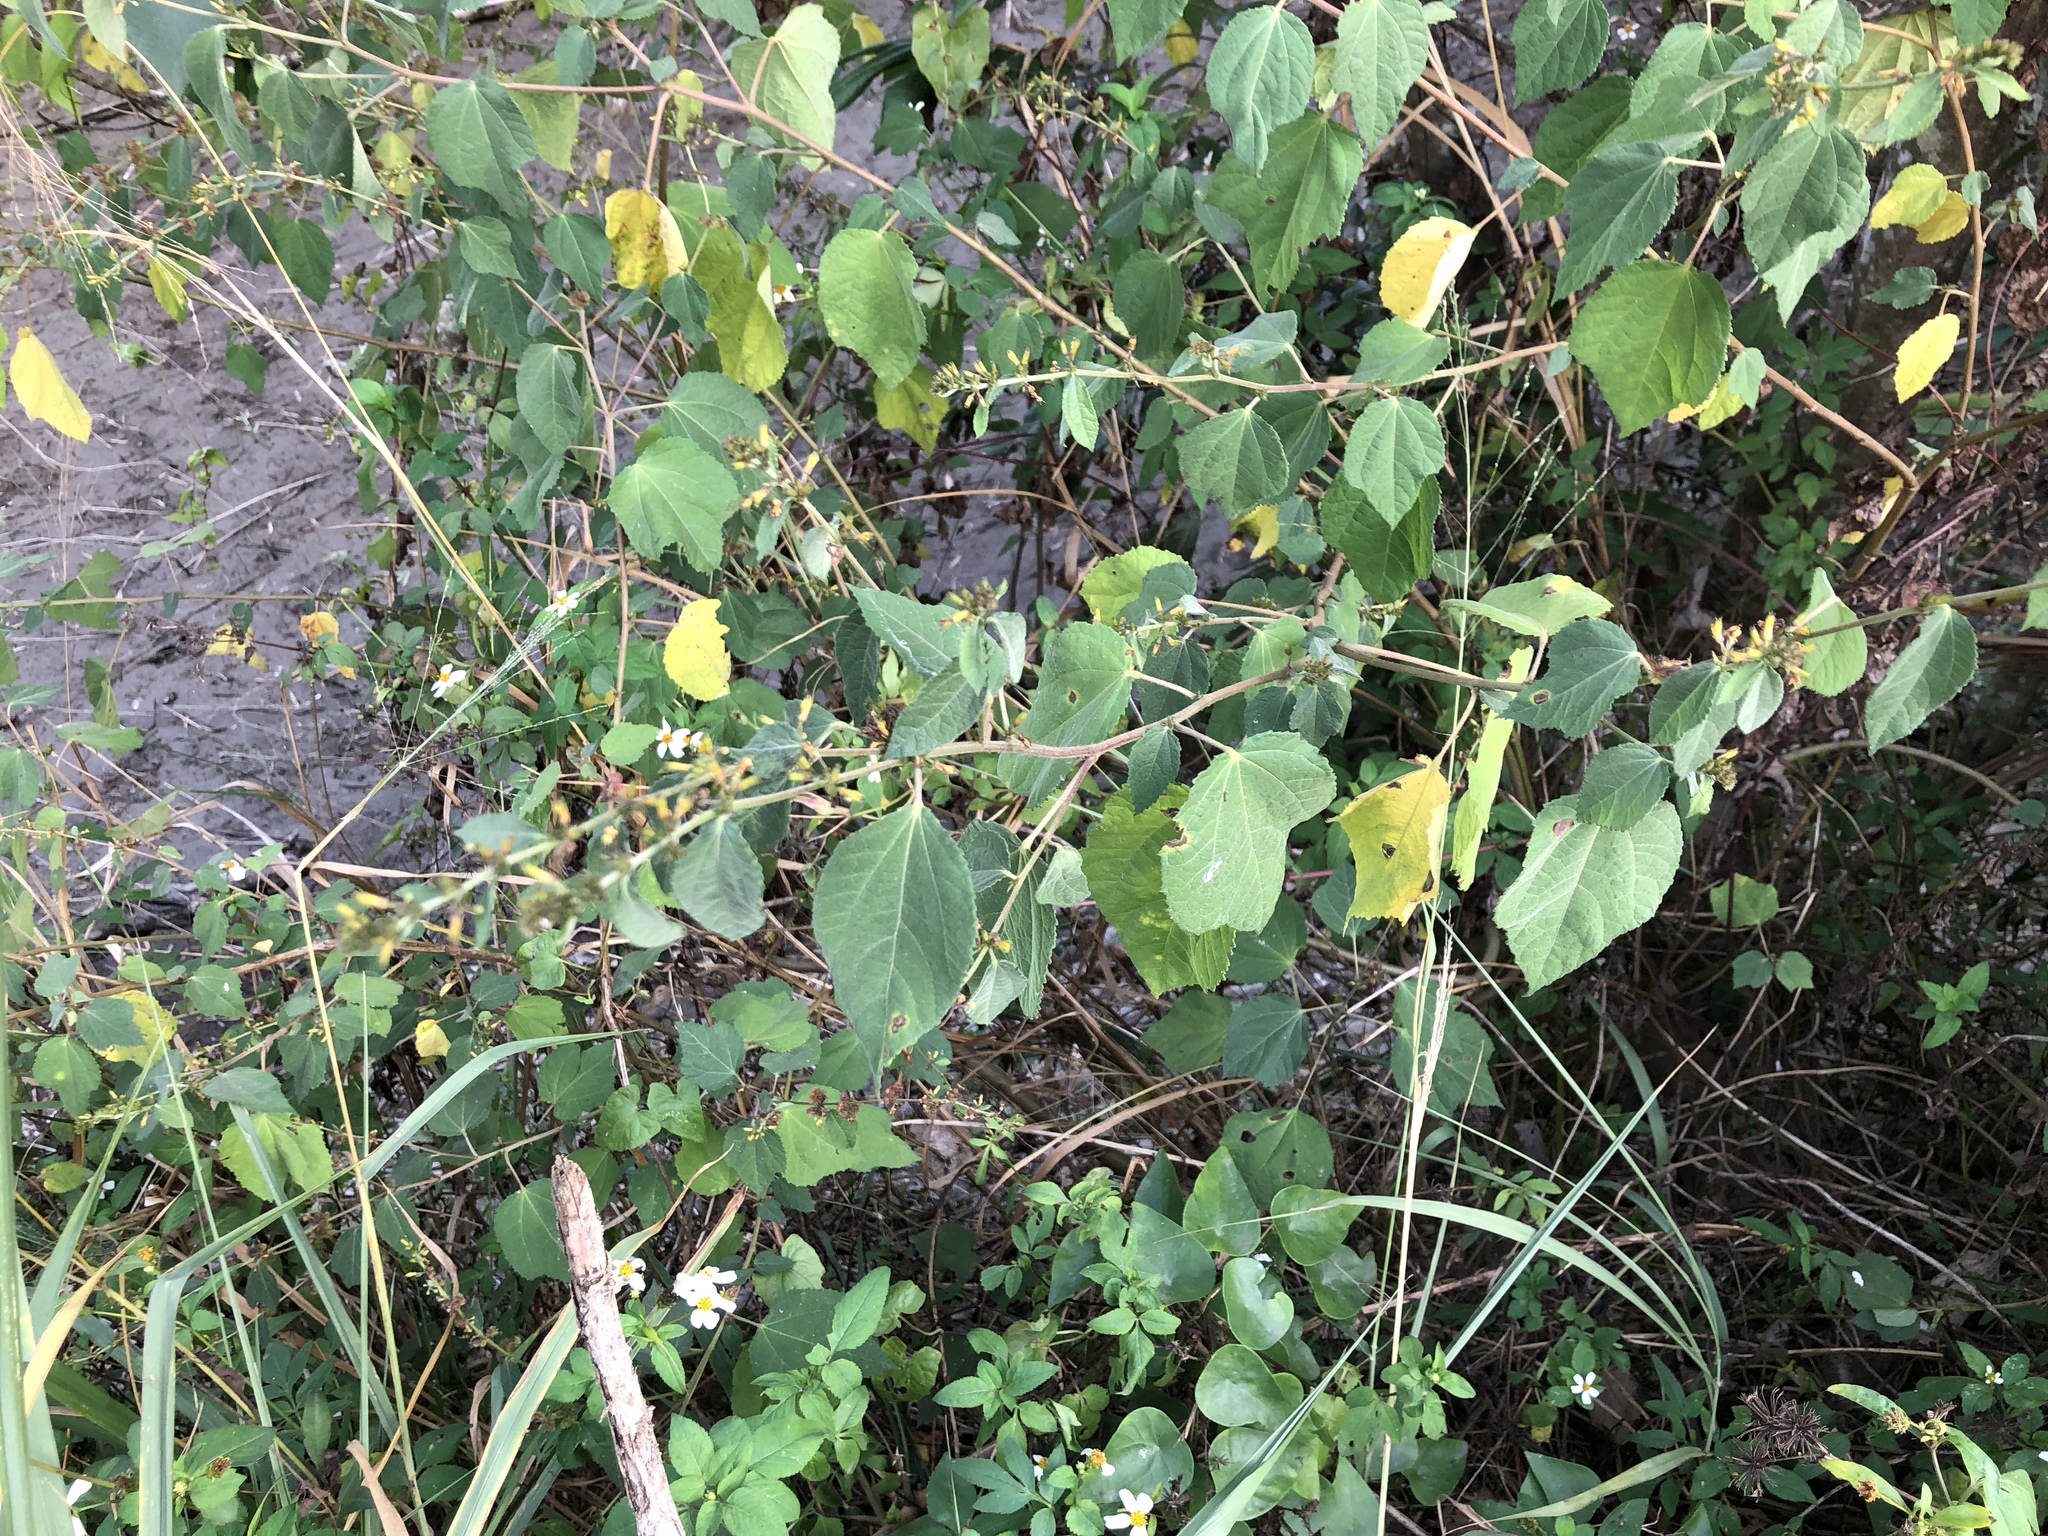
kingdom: Plantae
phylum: Tracheophyta
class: Magnoliopsida
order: Malvales
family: Malvaceae
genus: Triumfetta
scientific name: Triumfetta semitriloba
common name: Sacramento burbark
